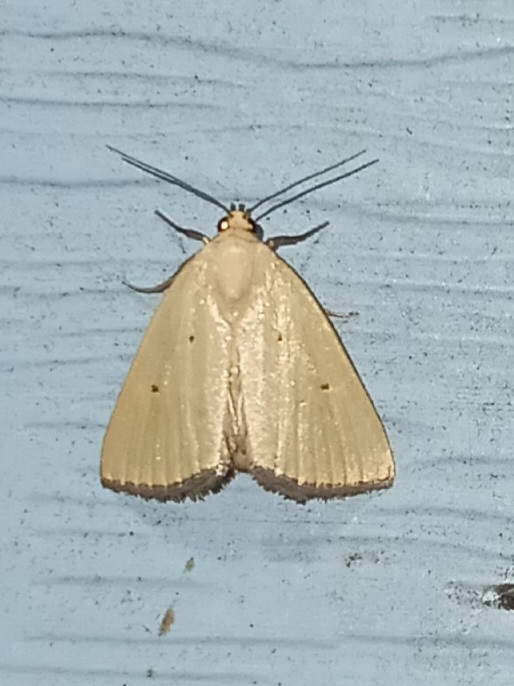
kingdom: Animalia
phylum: Arthropoda
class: Insecta
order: Lepidoptera
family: Noctuidae
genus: Marimatha
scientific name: Marimatha nigrofimbria
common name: Black-bordered lemon moth
